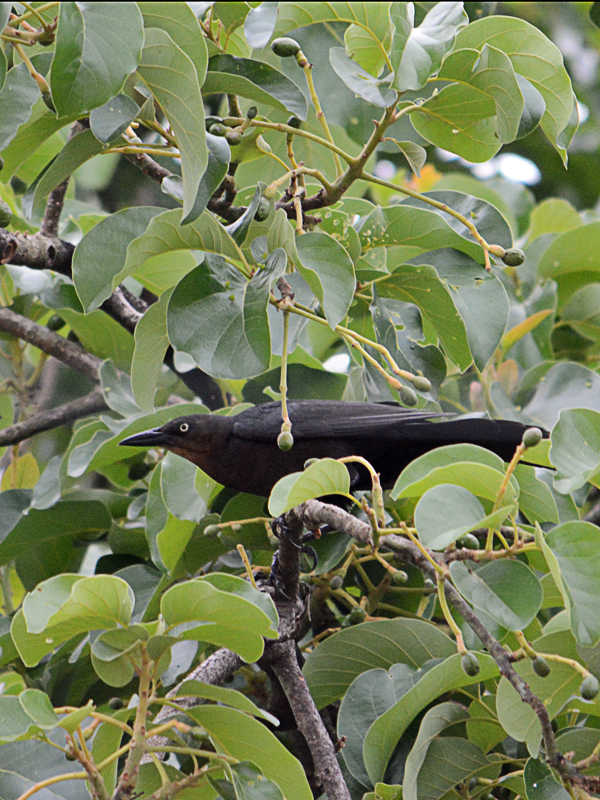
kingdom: Animalia
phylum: Chordata
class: Aves
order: Passeriformes
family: Icteridae
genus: Quiscalus
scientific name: Quiscalus mexicanus
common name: Great-tailed grackle
